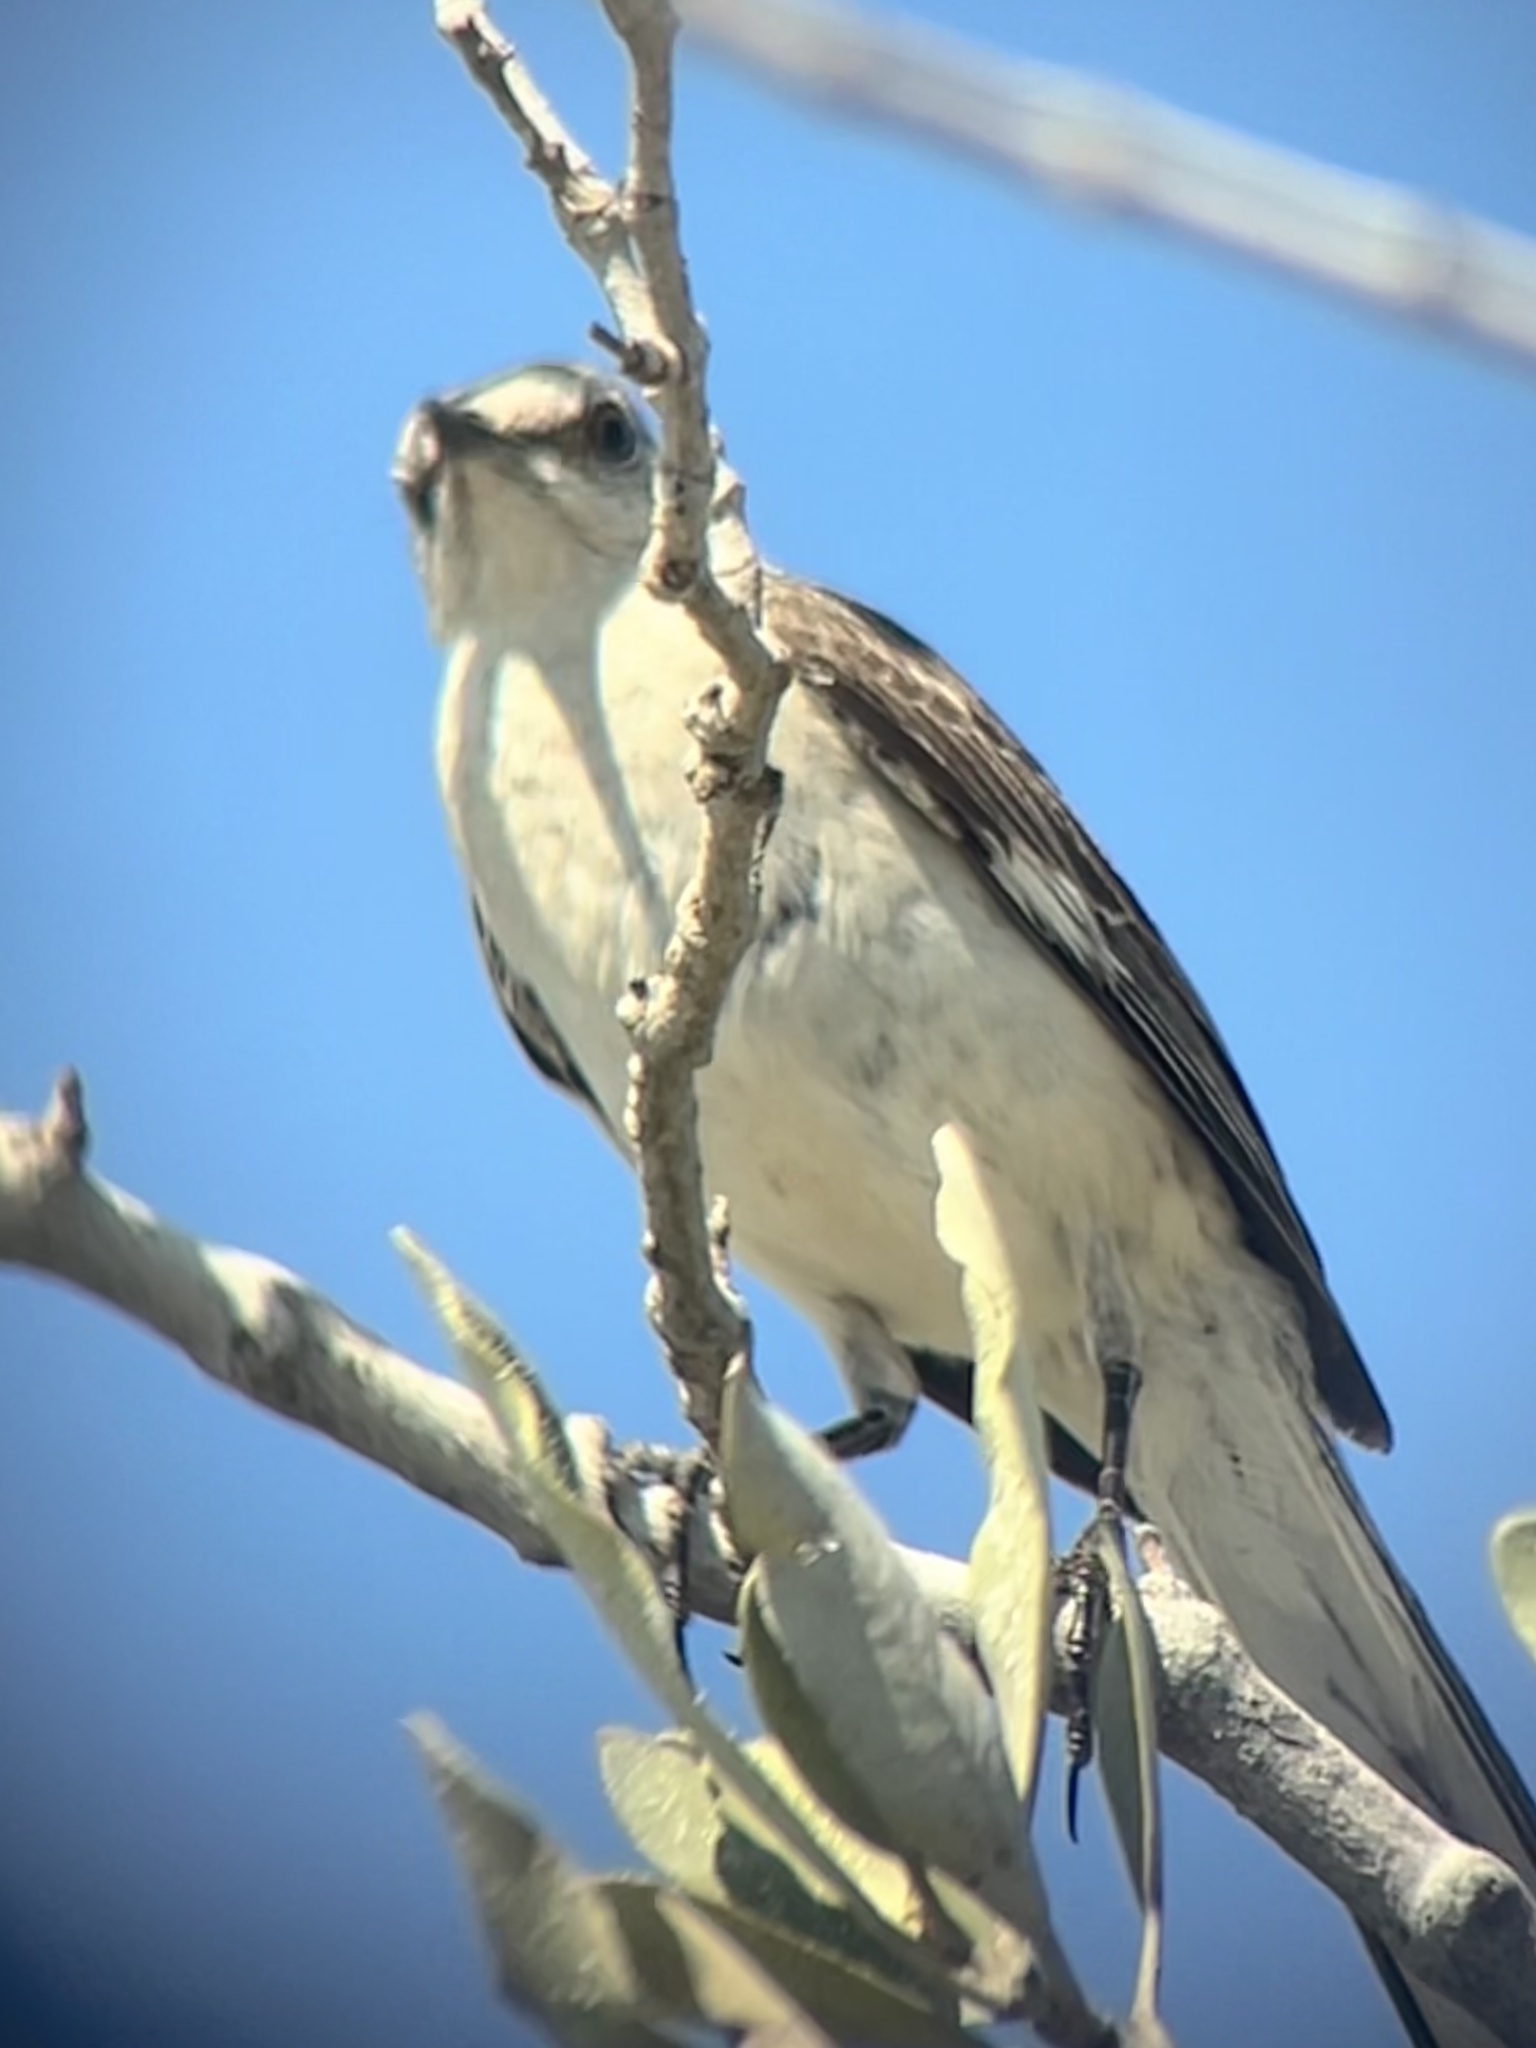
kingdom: Animalia
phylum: Chordata
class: Aves
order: Passeriformes
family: Mimidae
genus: Mimus
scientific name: Mimus polyglottos
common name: Northern mockingbird
